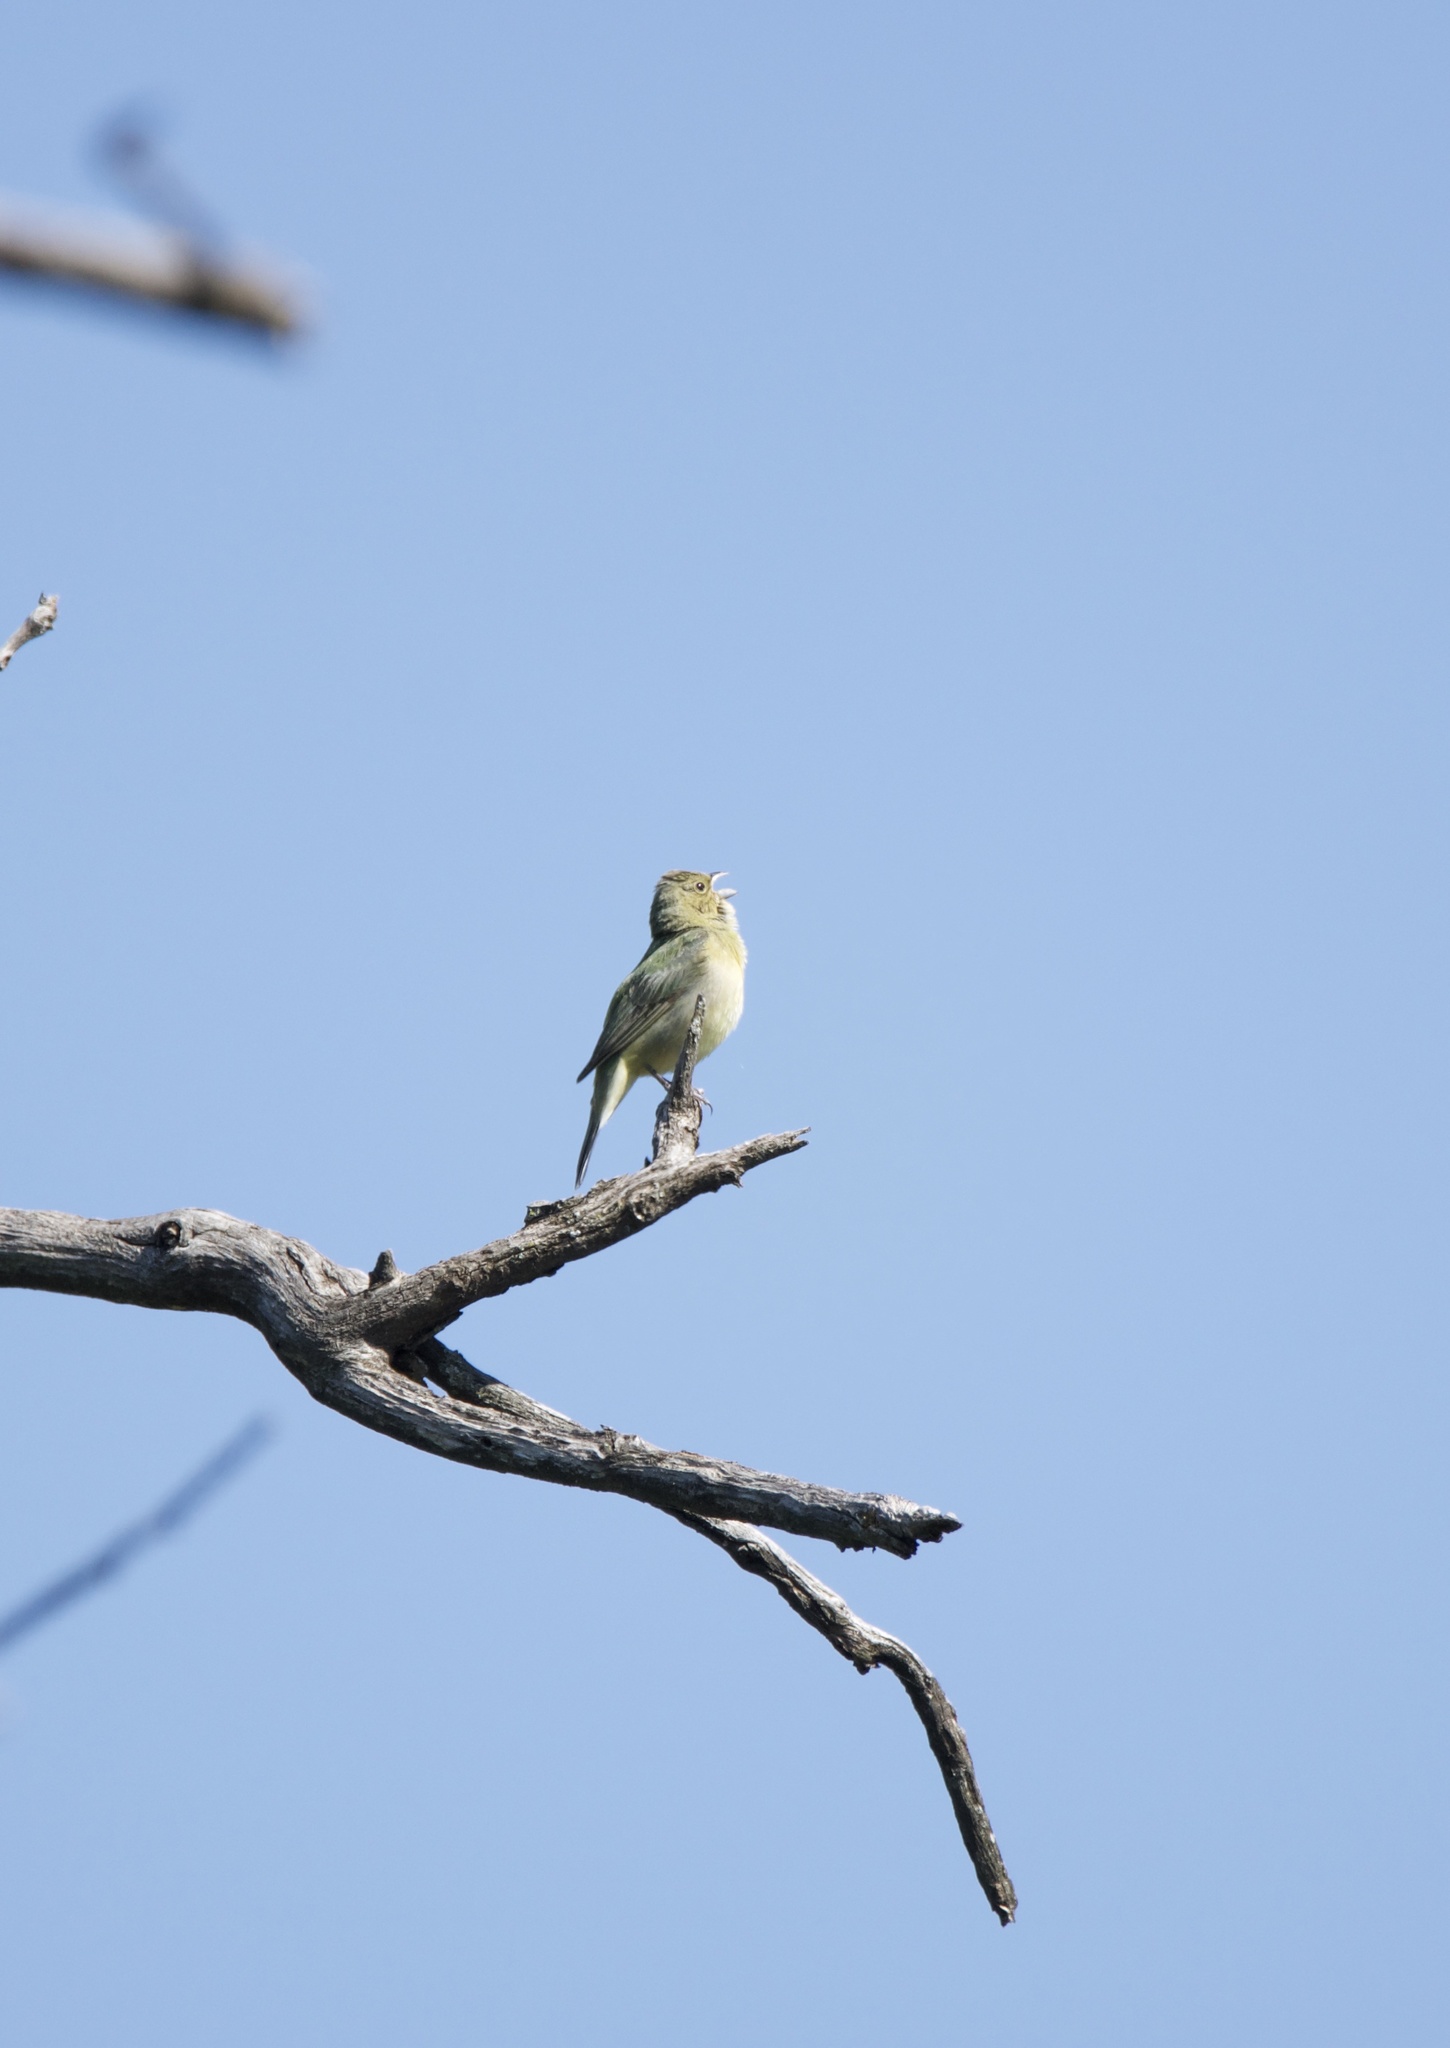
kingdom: Animalia
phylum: Chordata
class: Aves
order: Passeriformes
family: Cardinalidae
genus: Passerina
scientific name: Passerina ciris
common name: Painted bunting
